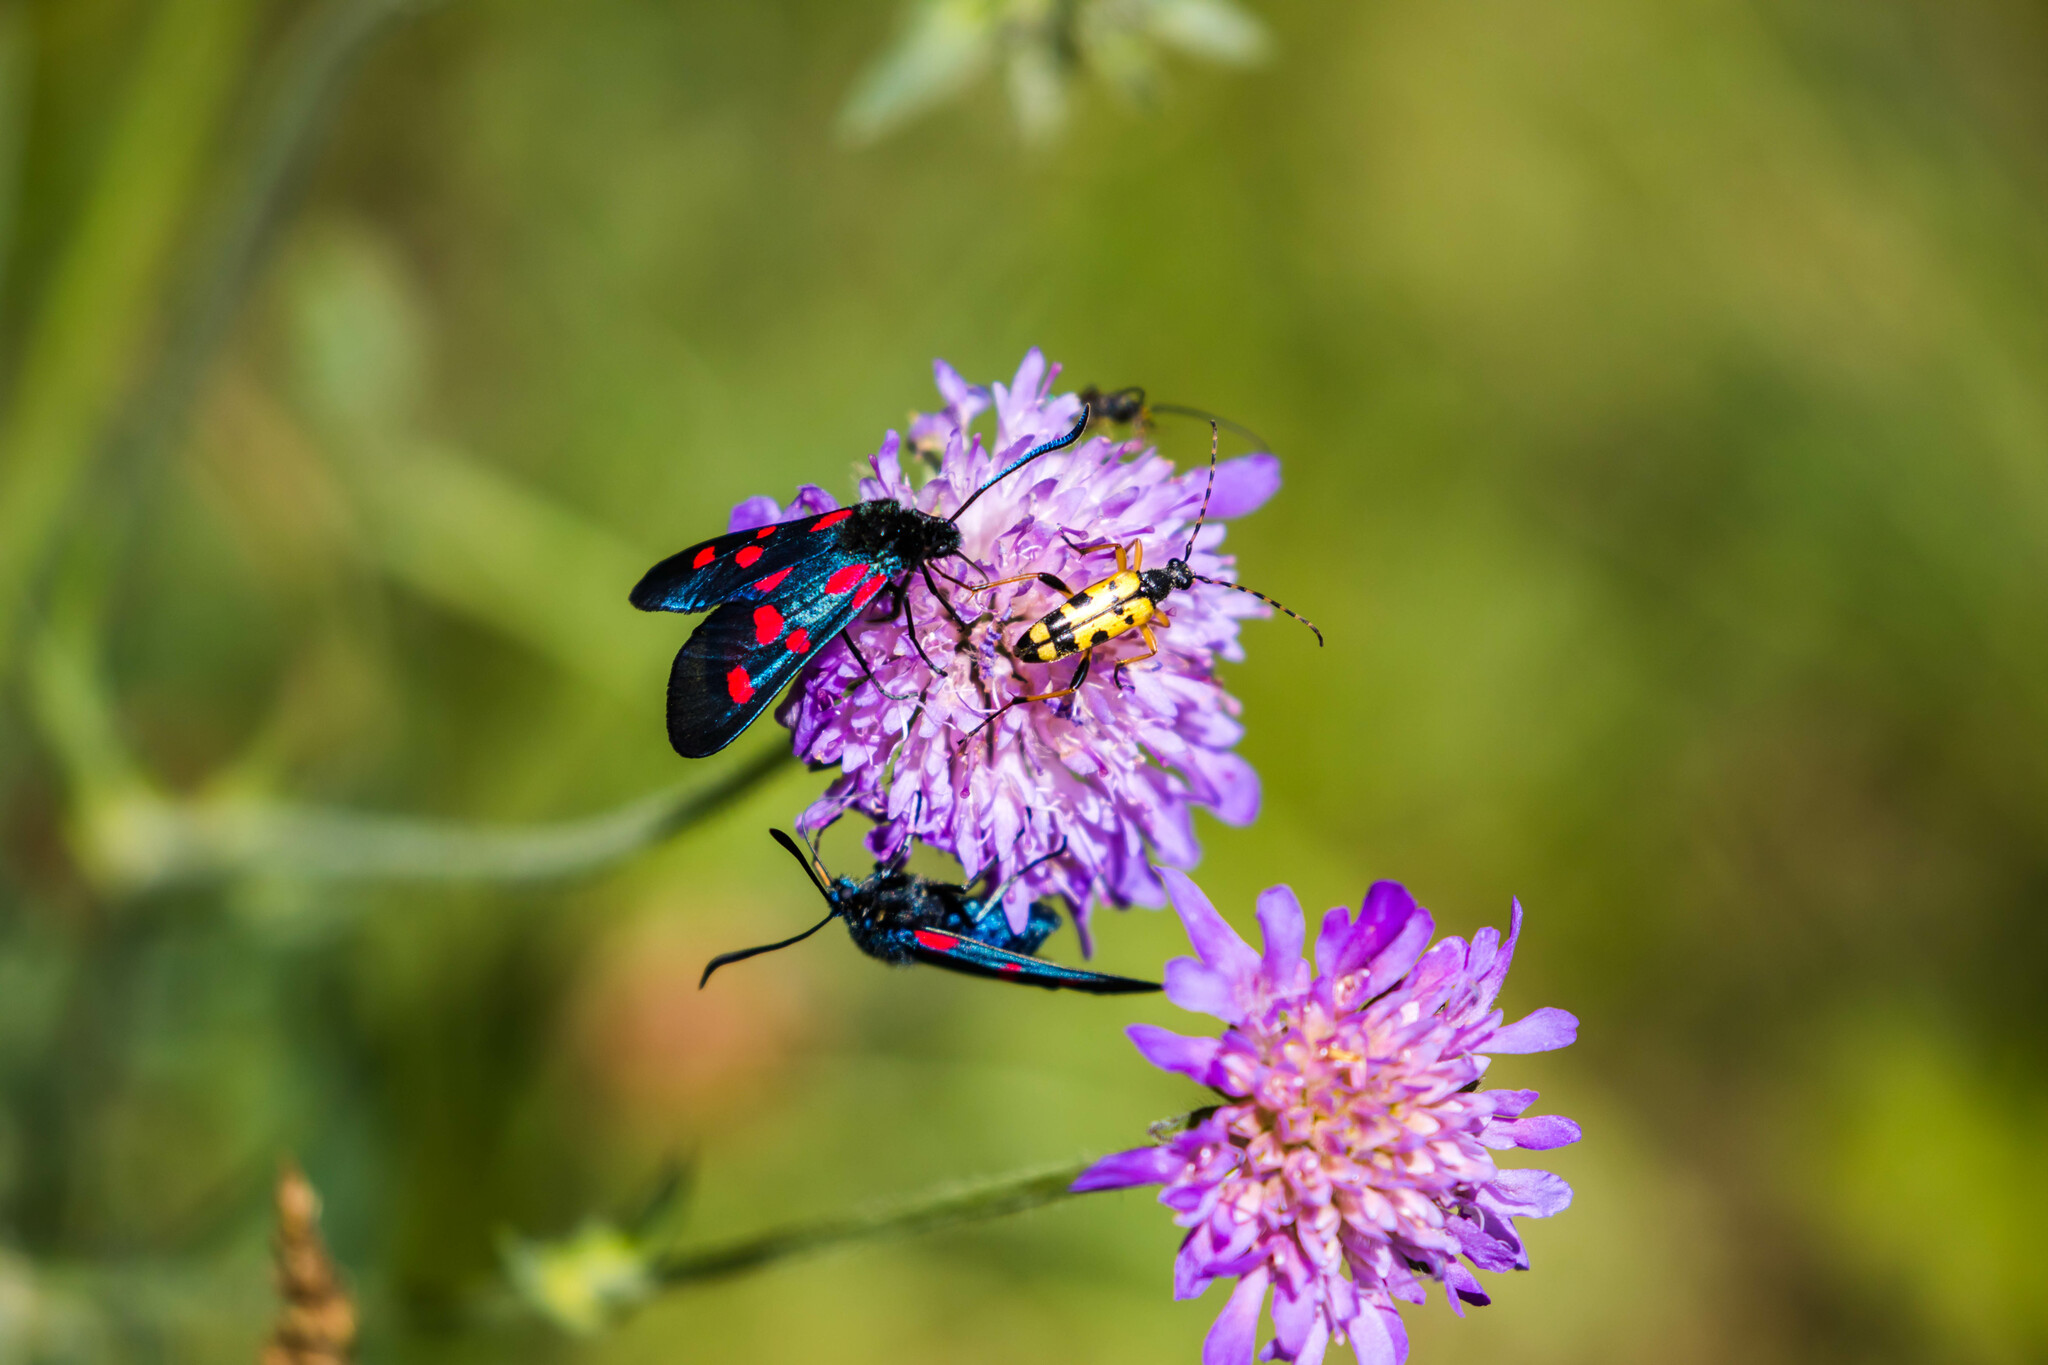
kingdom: Animalia
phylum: Arthropoda
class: Insecta
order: Coleoptera
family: Cerambycidae
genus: Rutpela
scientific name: Rutpela maculata
